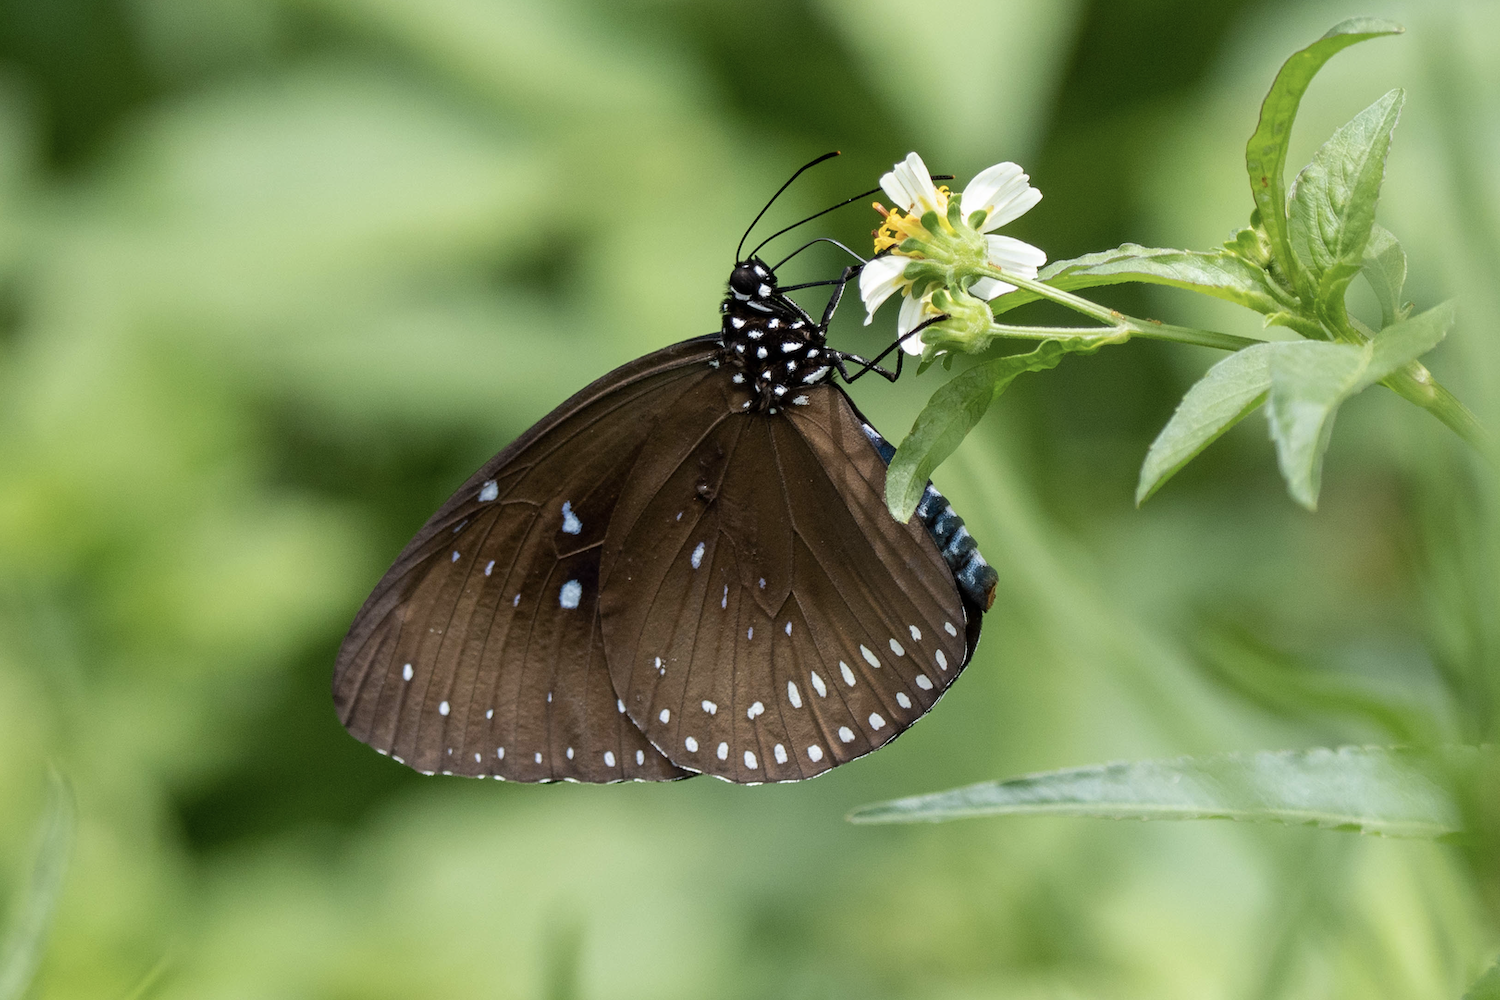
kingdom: Animalia
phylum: Arthropoda
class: Insecta
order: Lepidoptera
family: Nymphalidae
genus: Euploea
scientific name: Euploea midamus
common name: Blue-spotted crow butterfly
